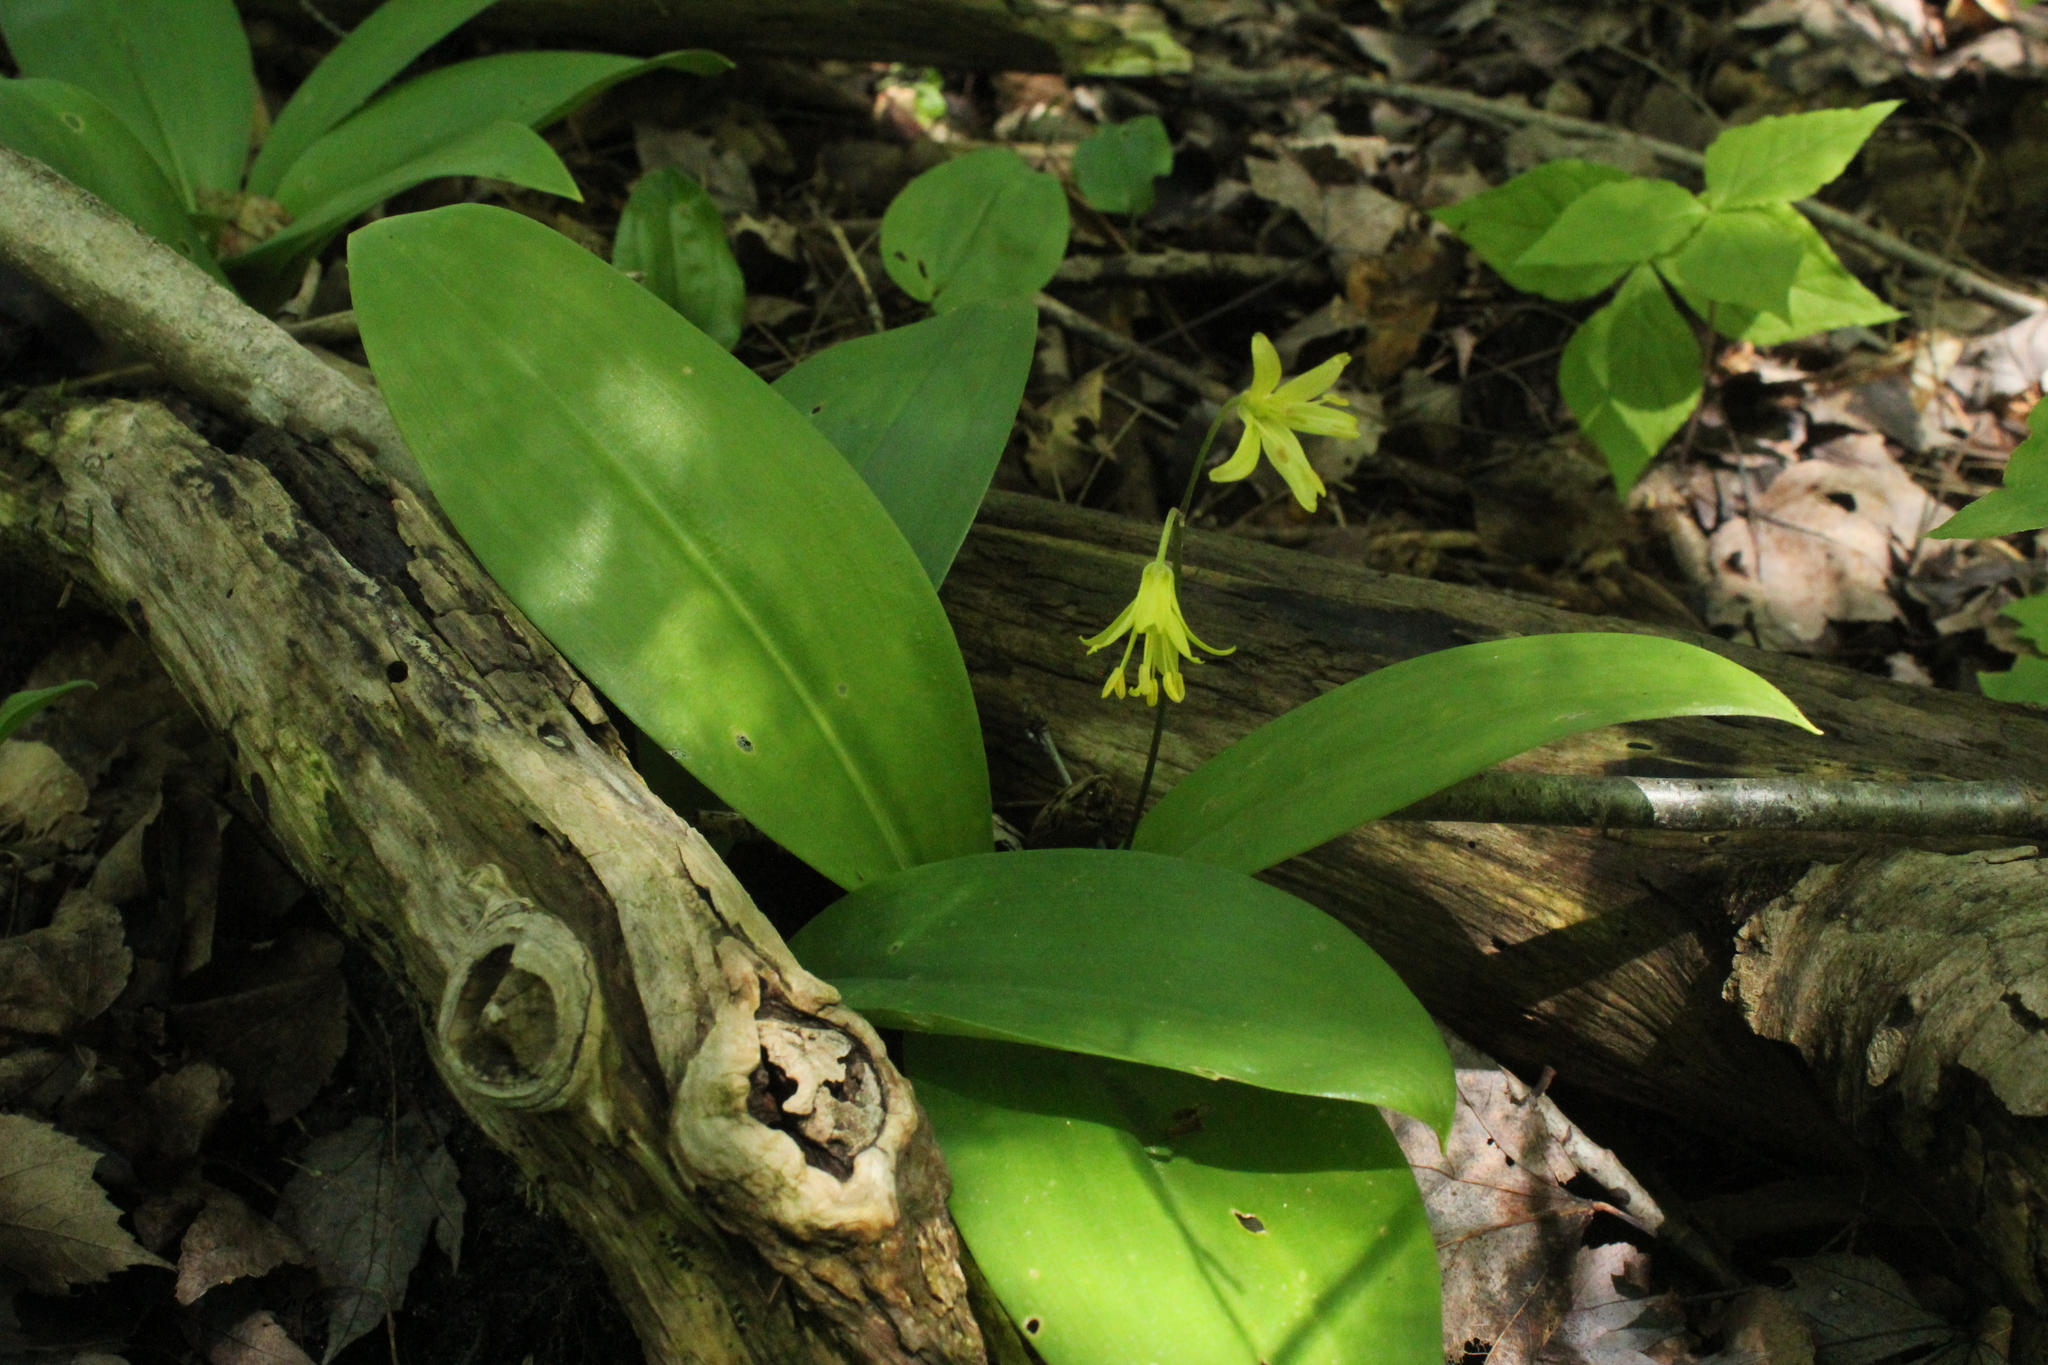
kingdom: Plantae
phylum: Tracheophyta
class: Liliopsida
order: Liliales
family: Liliaceae
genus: Clintonia
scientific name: Clintonia borealis
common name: Yellow clintonia
